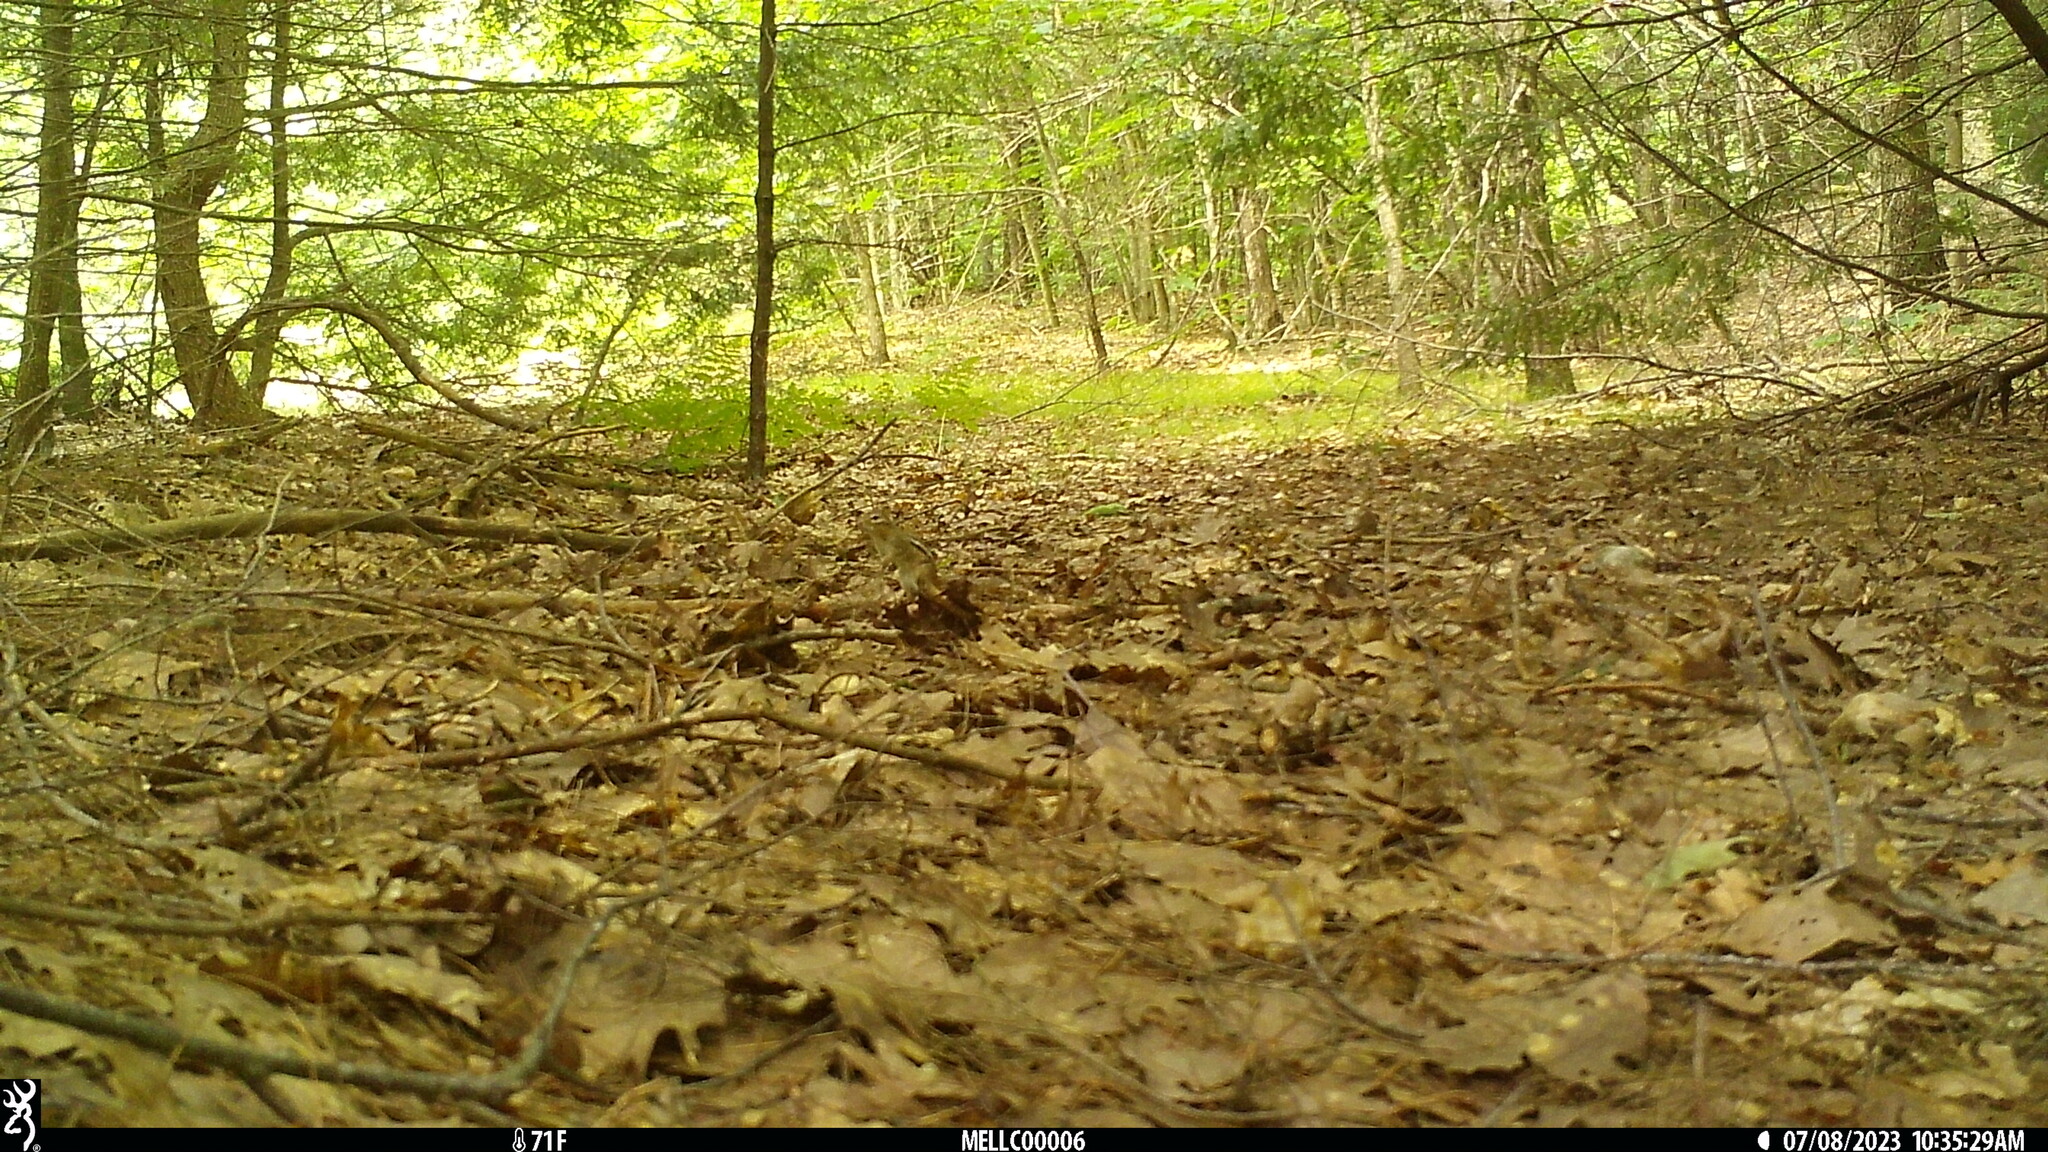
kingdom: Animalia
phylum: Chordata
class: Mammalia
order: Rodentia
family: Sciuridae
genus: Tamias
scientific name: Tamias striatus
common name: Eastern chipmunk
